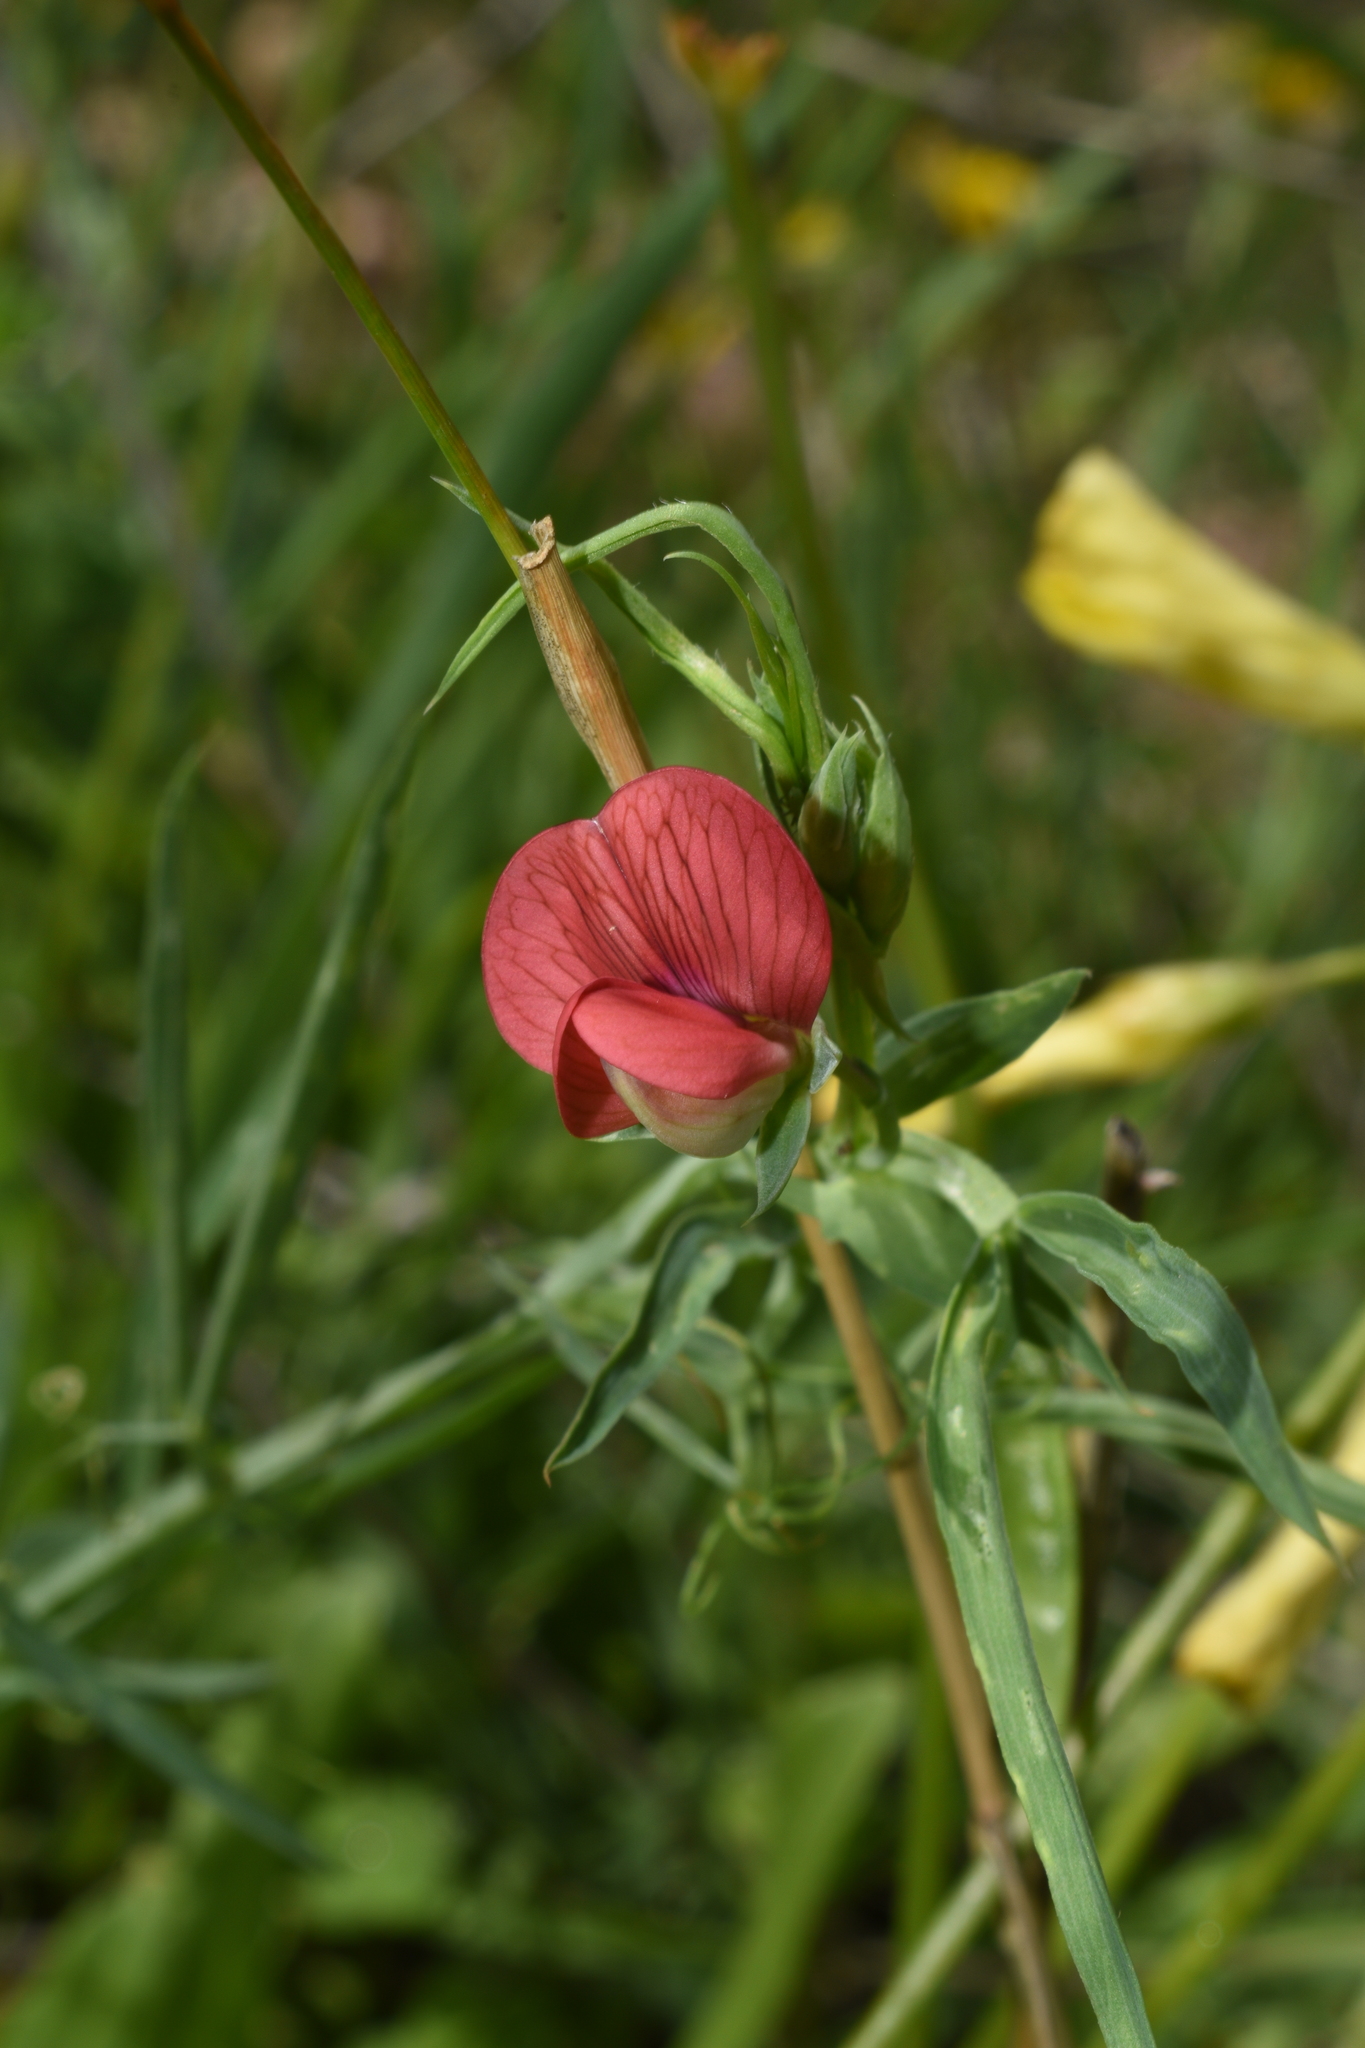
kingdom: Plantae
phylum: Tracheophyta
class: Magnoliopsida
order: Fabales
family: Fabaceae
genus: Lathyrus
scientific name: Lathyrus cicera
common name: Red vetchling
